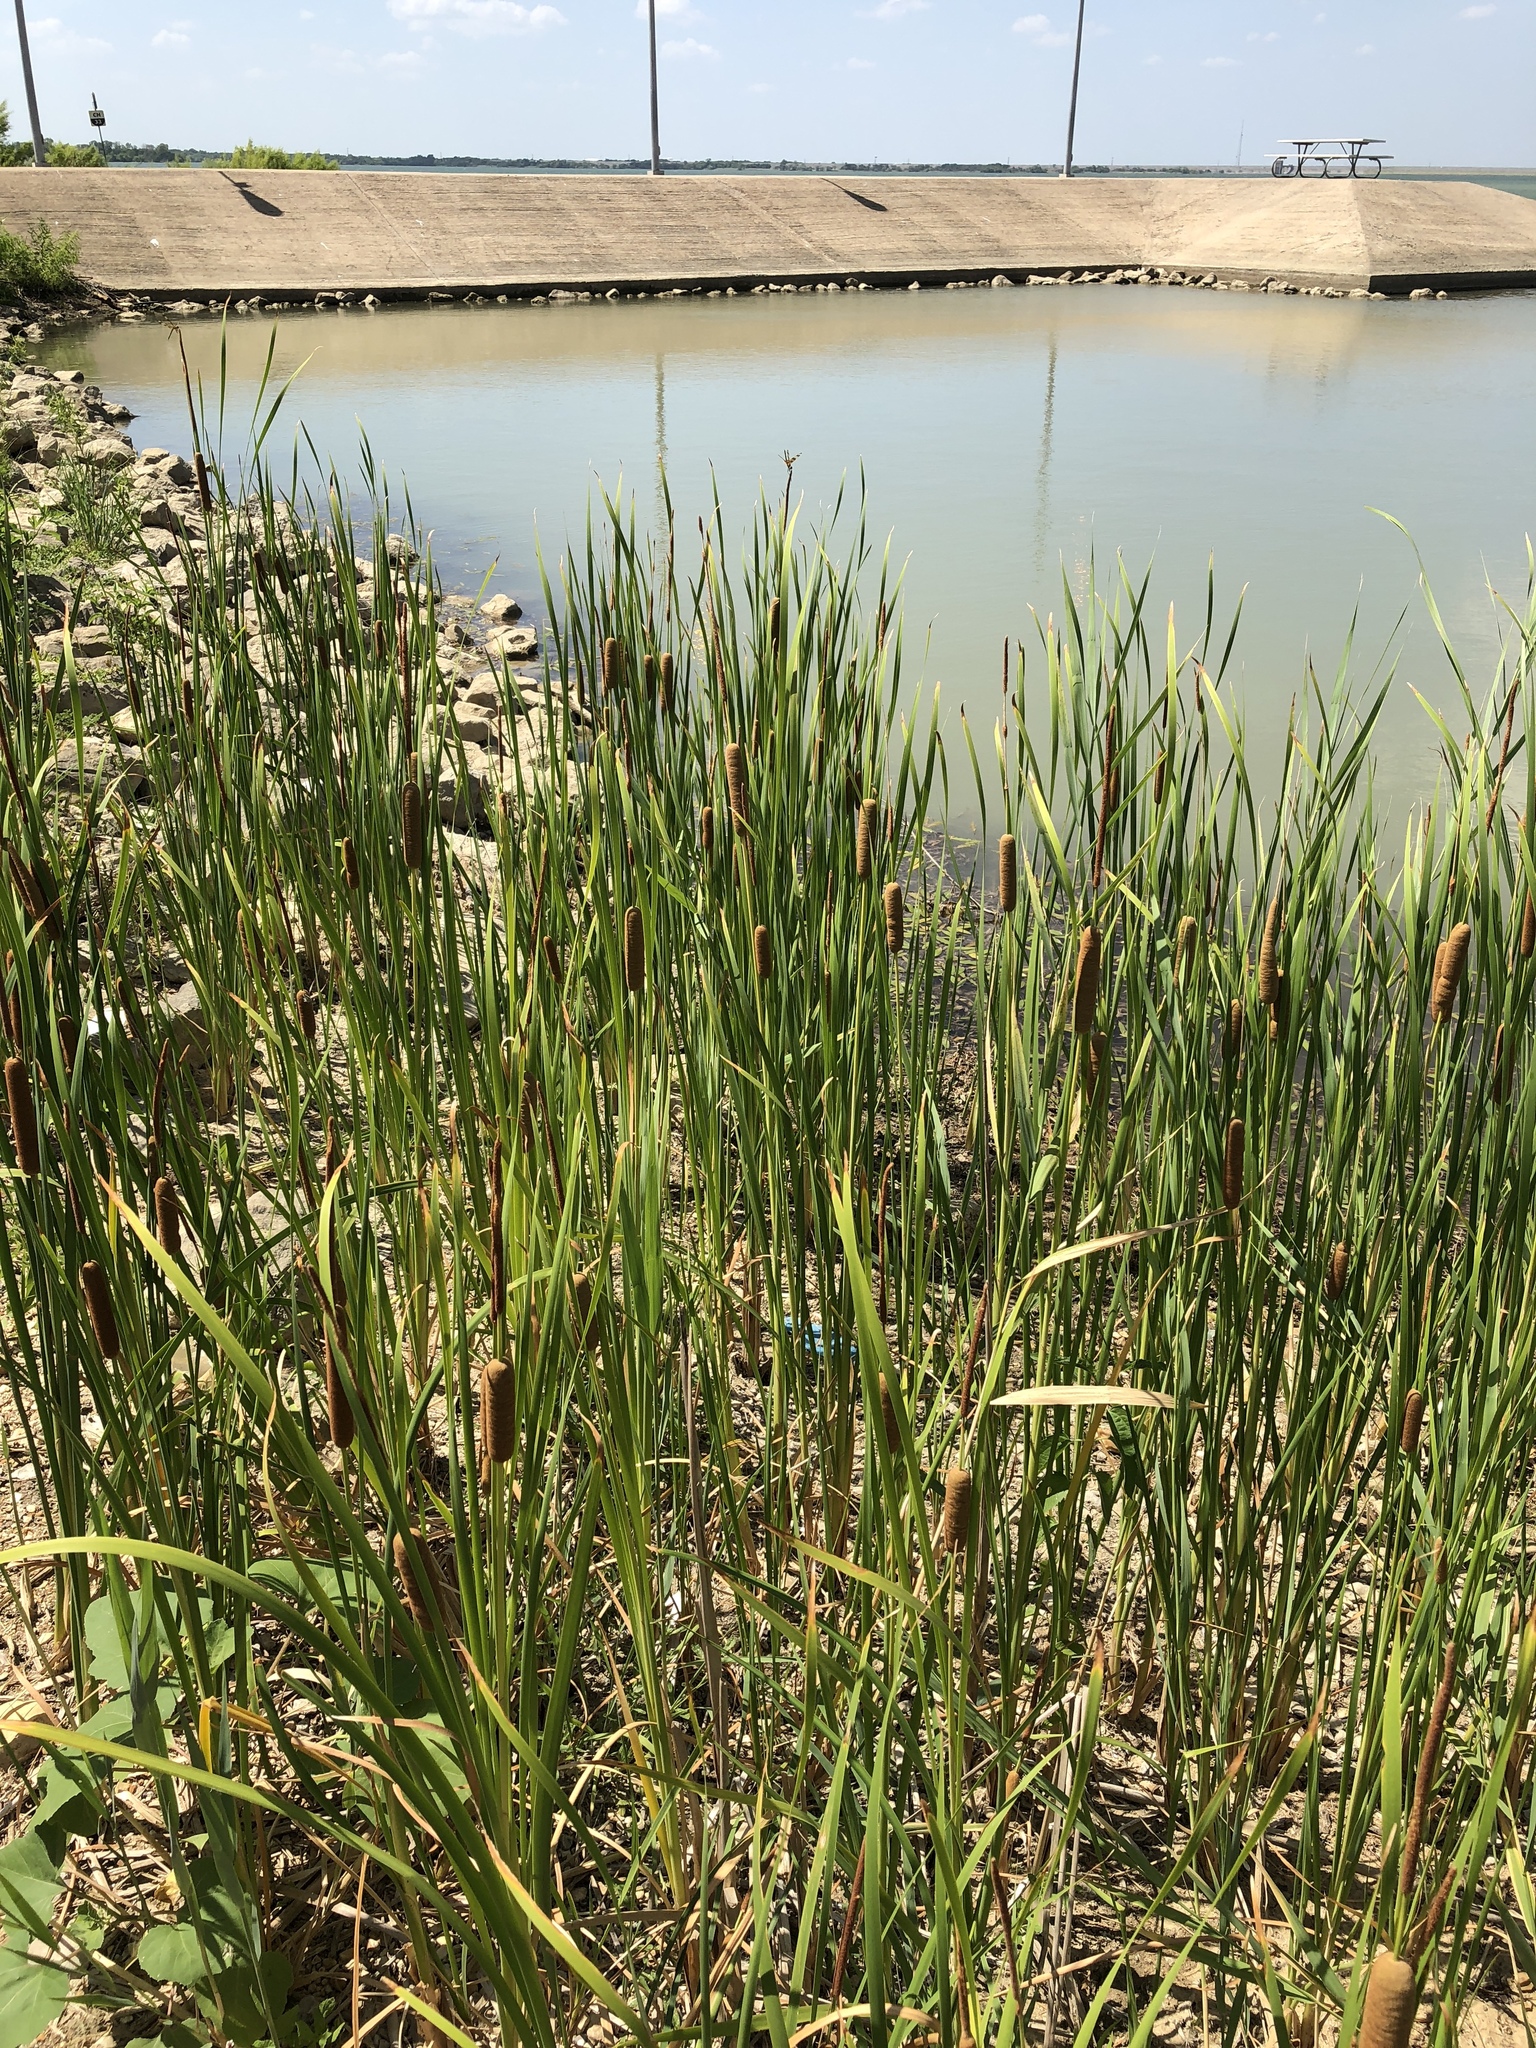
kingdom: Plantae
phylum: Tracheophyta
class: Liliopsida
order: Poales
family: Typhaceae
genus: Typha
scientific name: Typha domingensis
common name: Southern cattail
